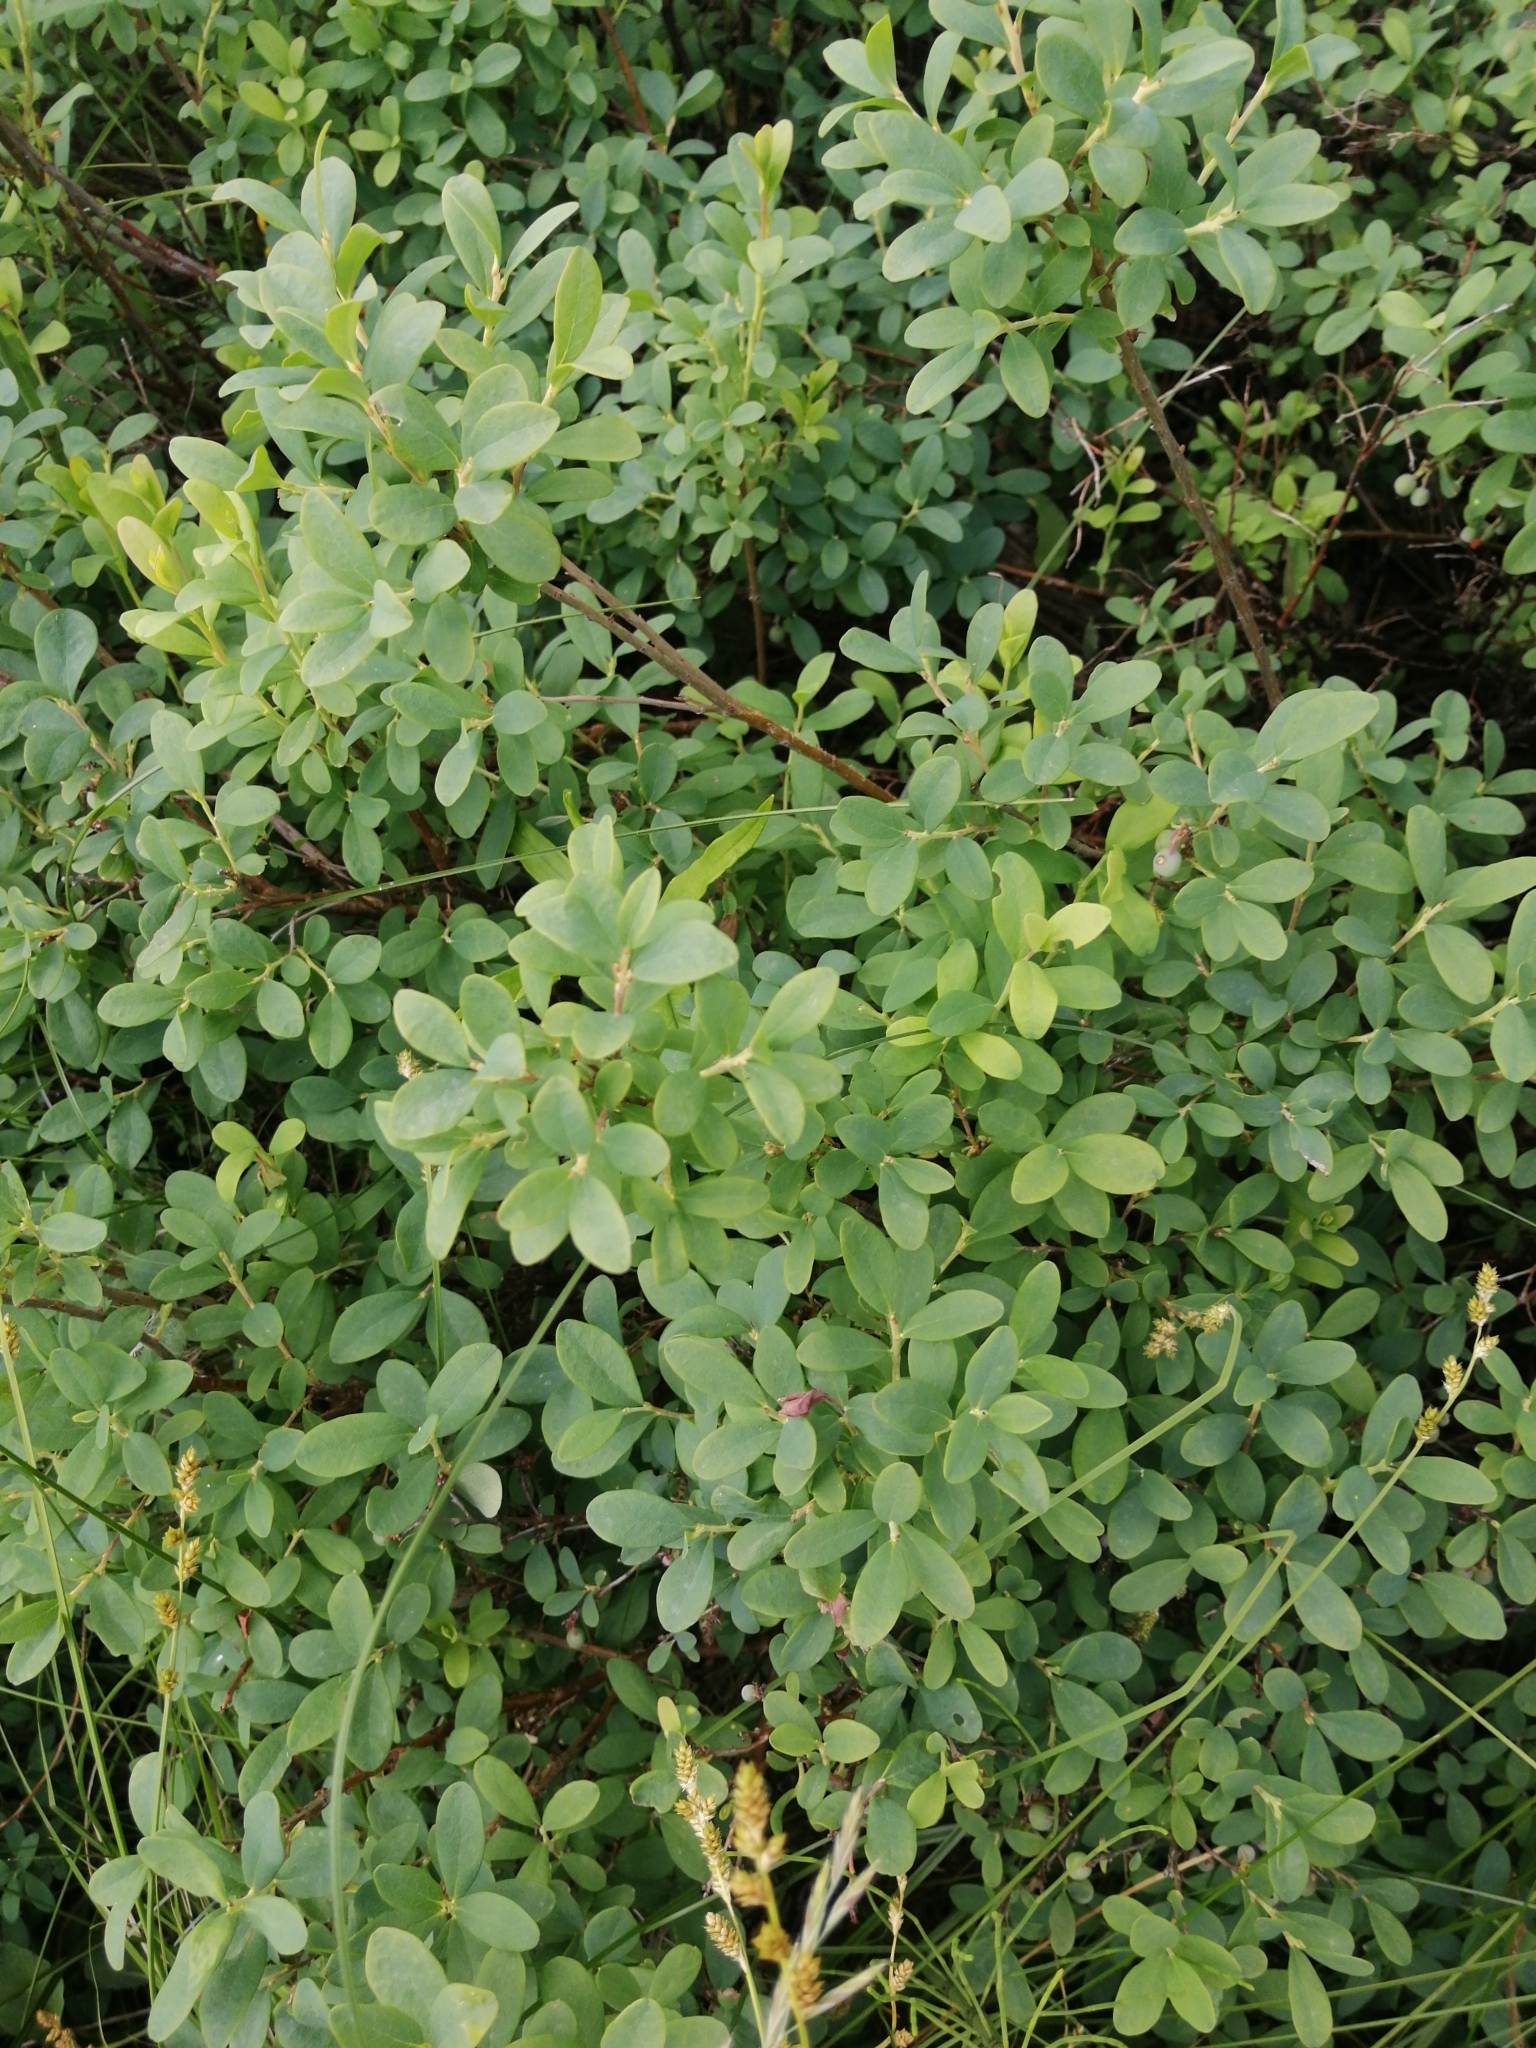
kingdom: Plantae
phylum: Tracheophyta
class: Magnoliopsida
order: Ericales
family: Ericaceae
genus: Vaccinium
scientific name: Vaccinium uliginosum
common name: Bog bilberry
